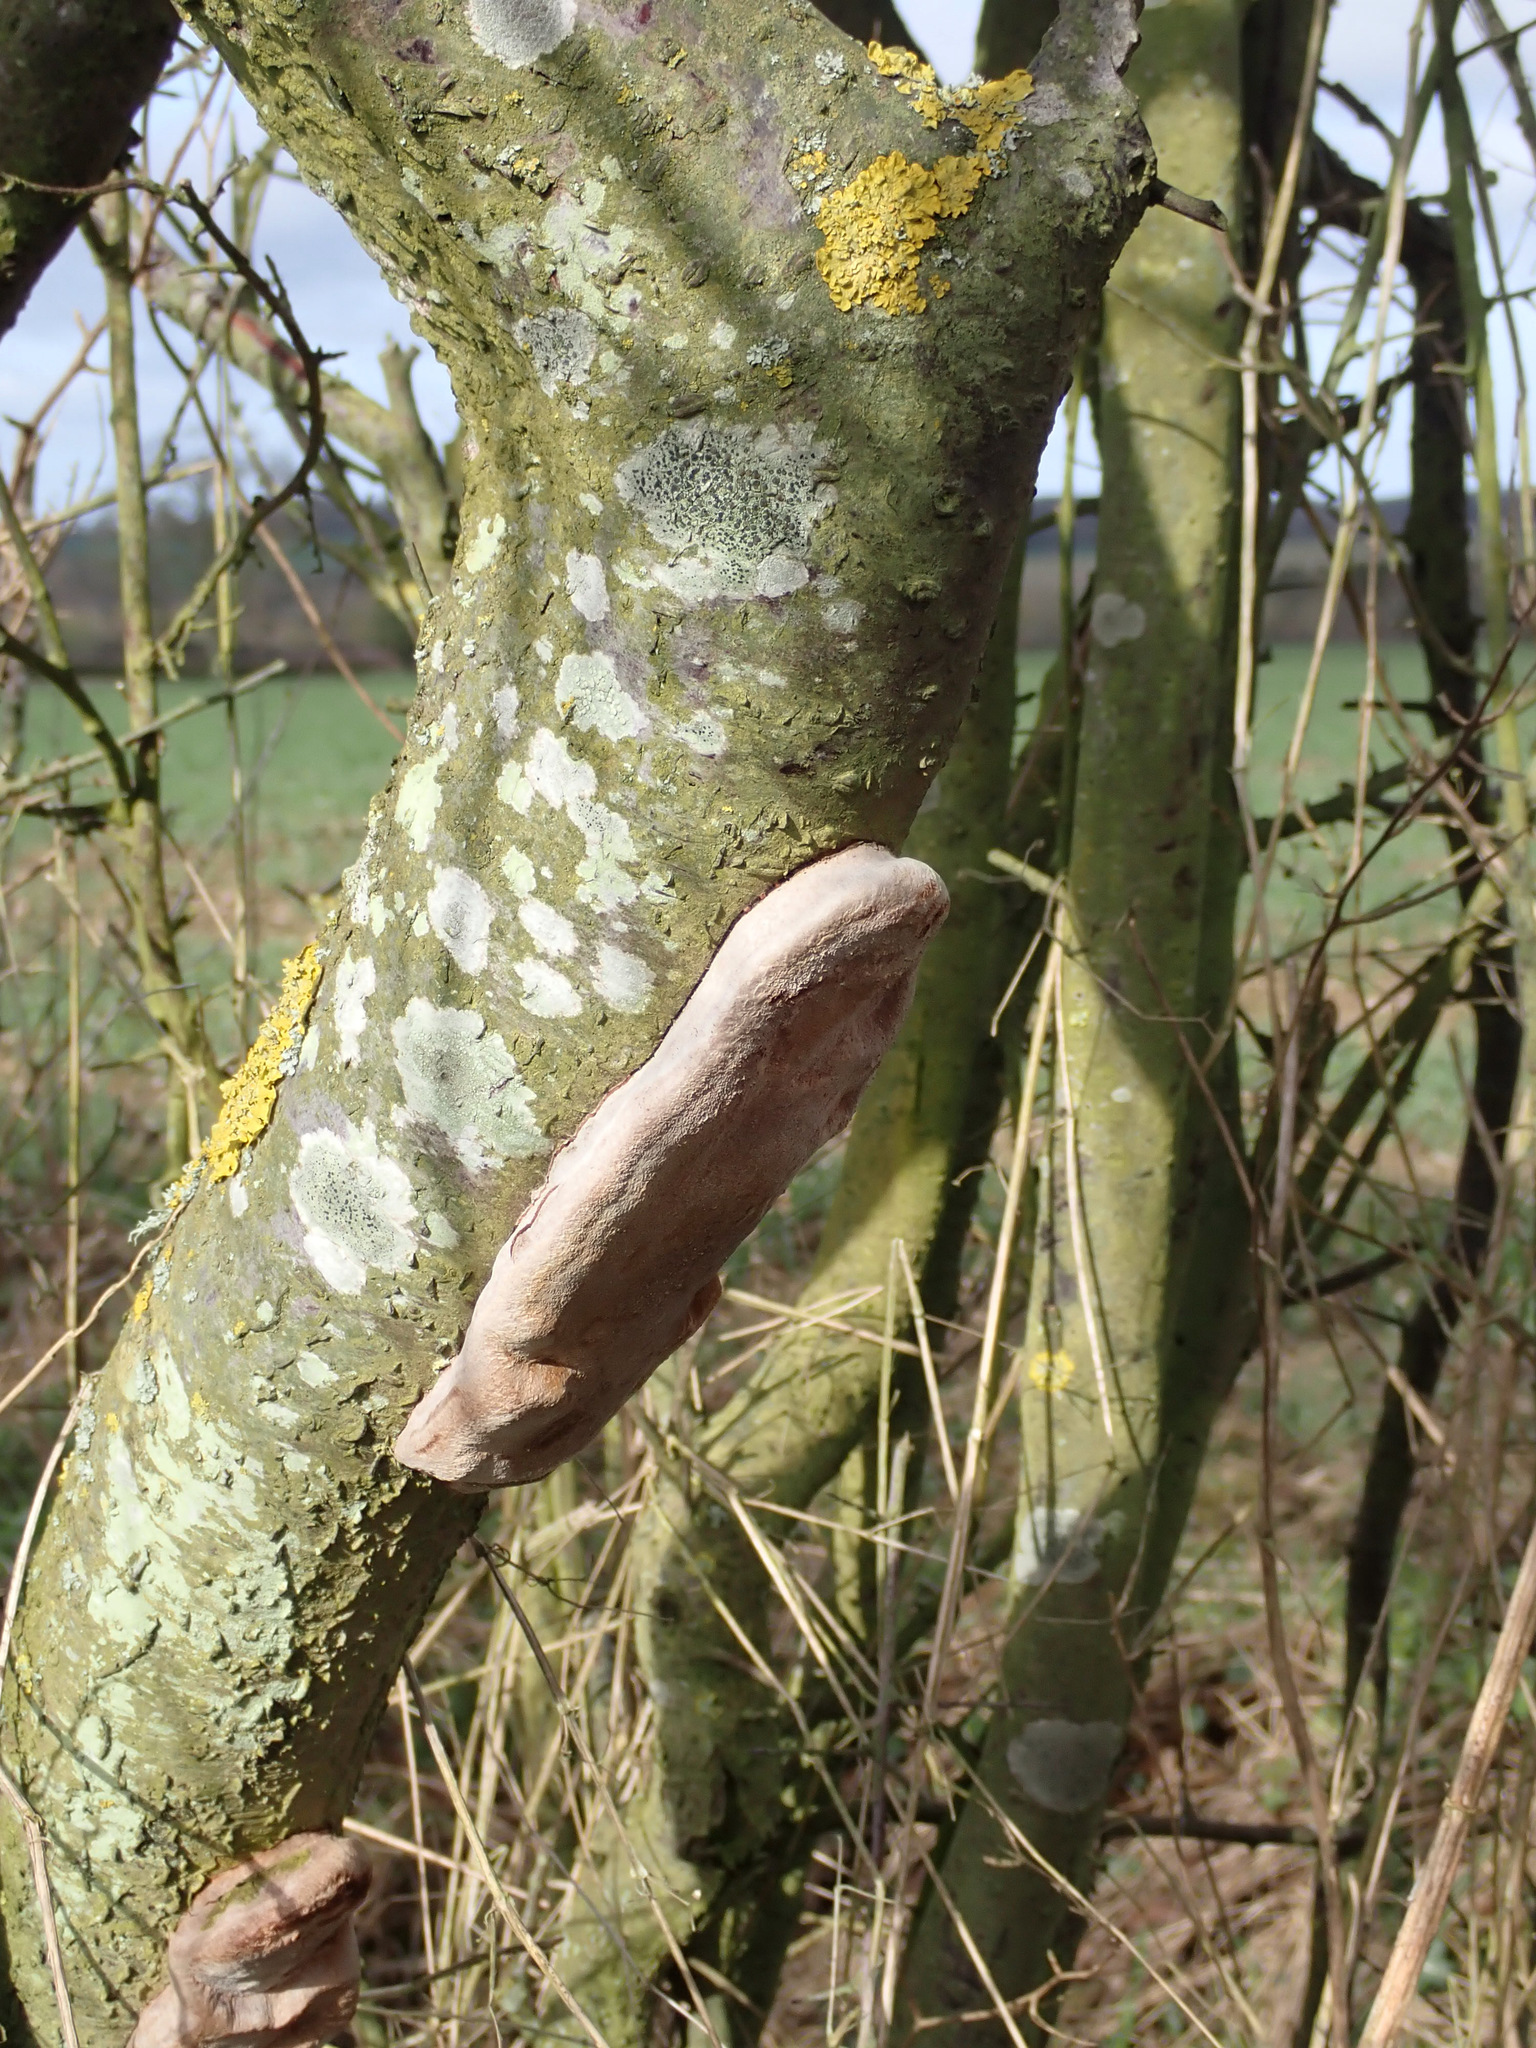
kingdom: Fungi
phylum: Basidiomycota
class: Agaricomycetes
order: Hymenochaetales
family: Hymenochaetaceae
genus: Phellinus
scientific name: Phellinus pomaceus
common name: Cushion bracket
